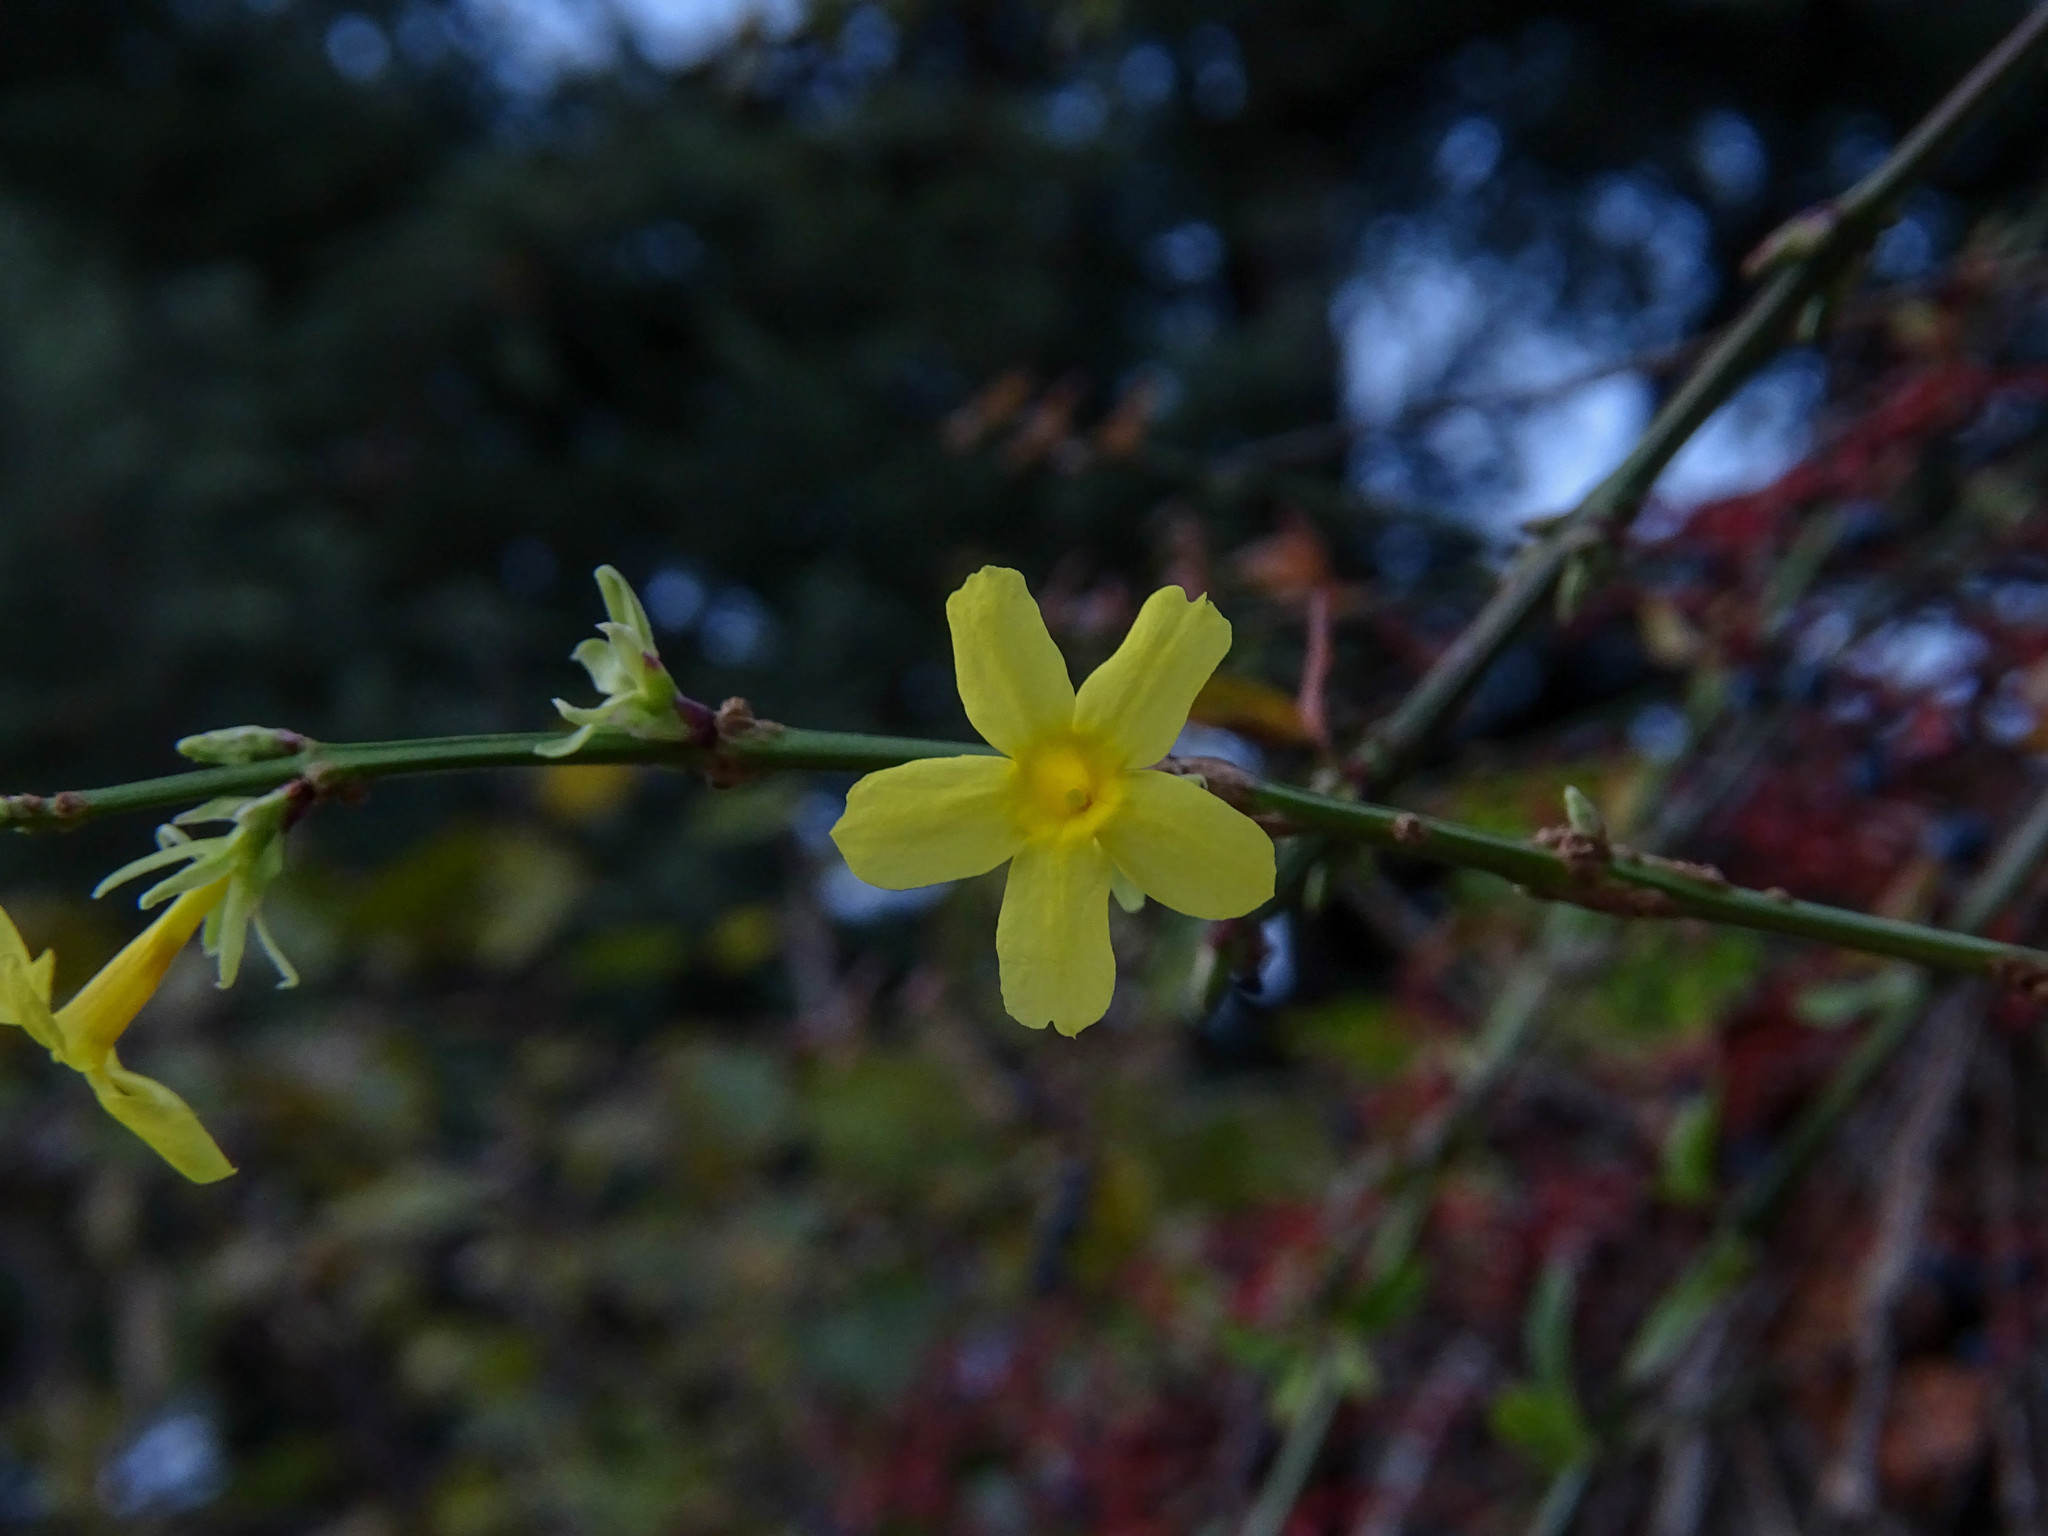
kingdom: Plantae
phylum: Tracheophyta
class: Magnoliopsida
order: Lamiales
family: Oleaceae
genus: Jasminum
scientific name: Jasminum nudiflorum
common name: Winter jasmine
